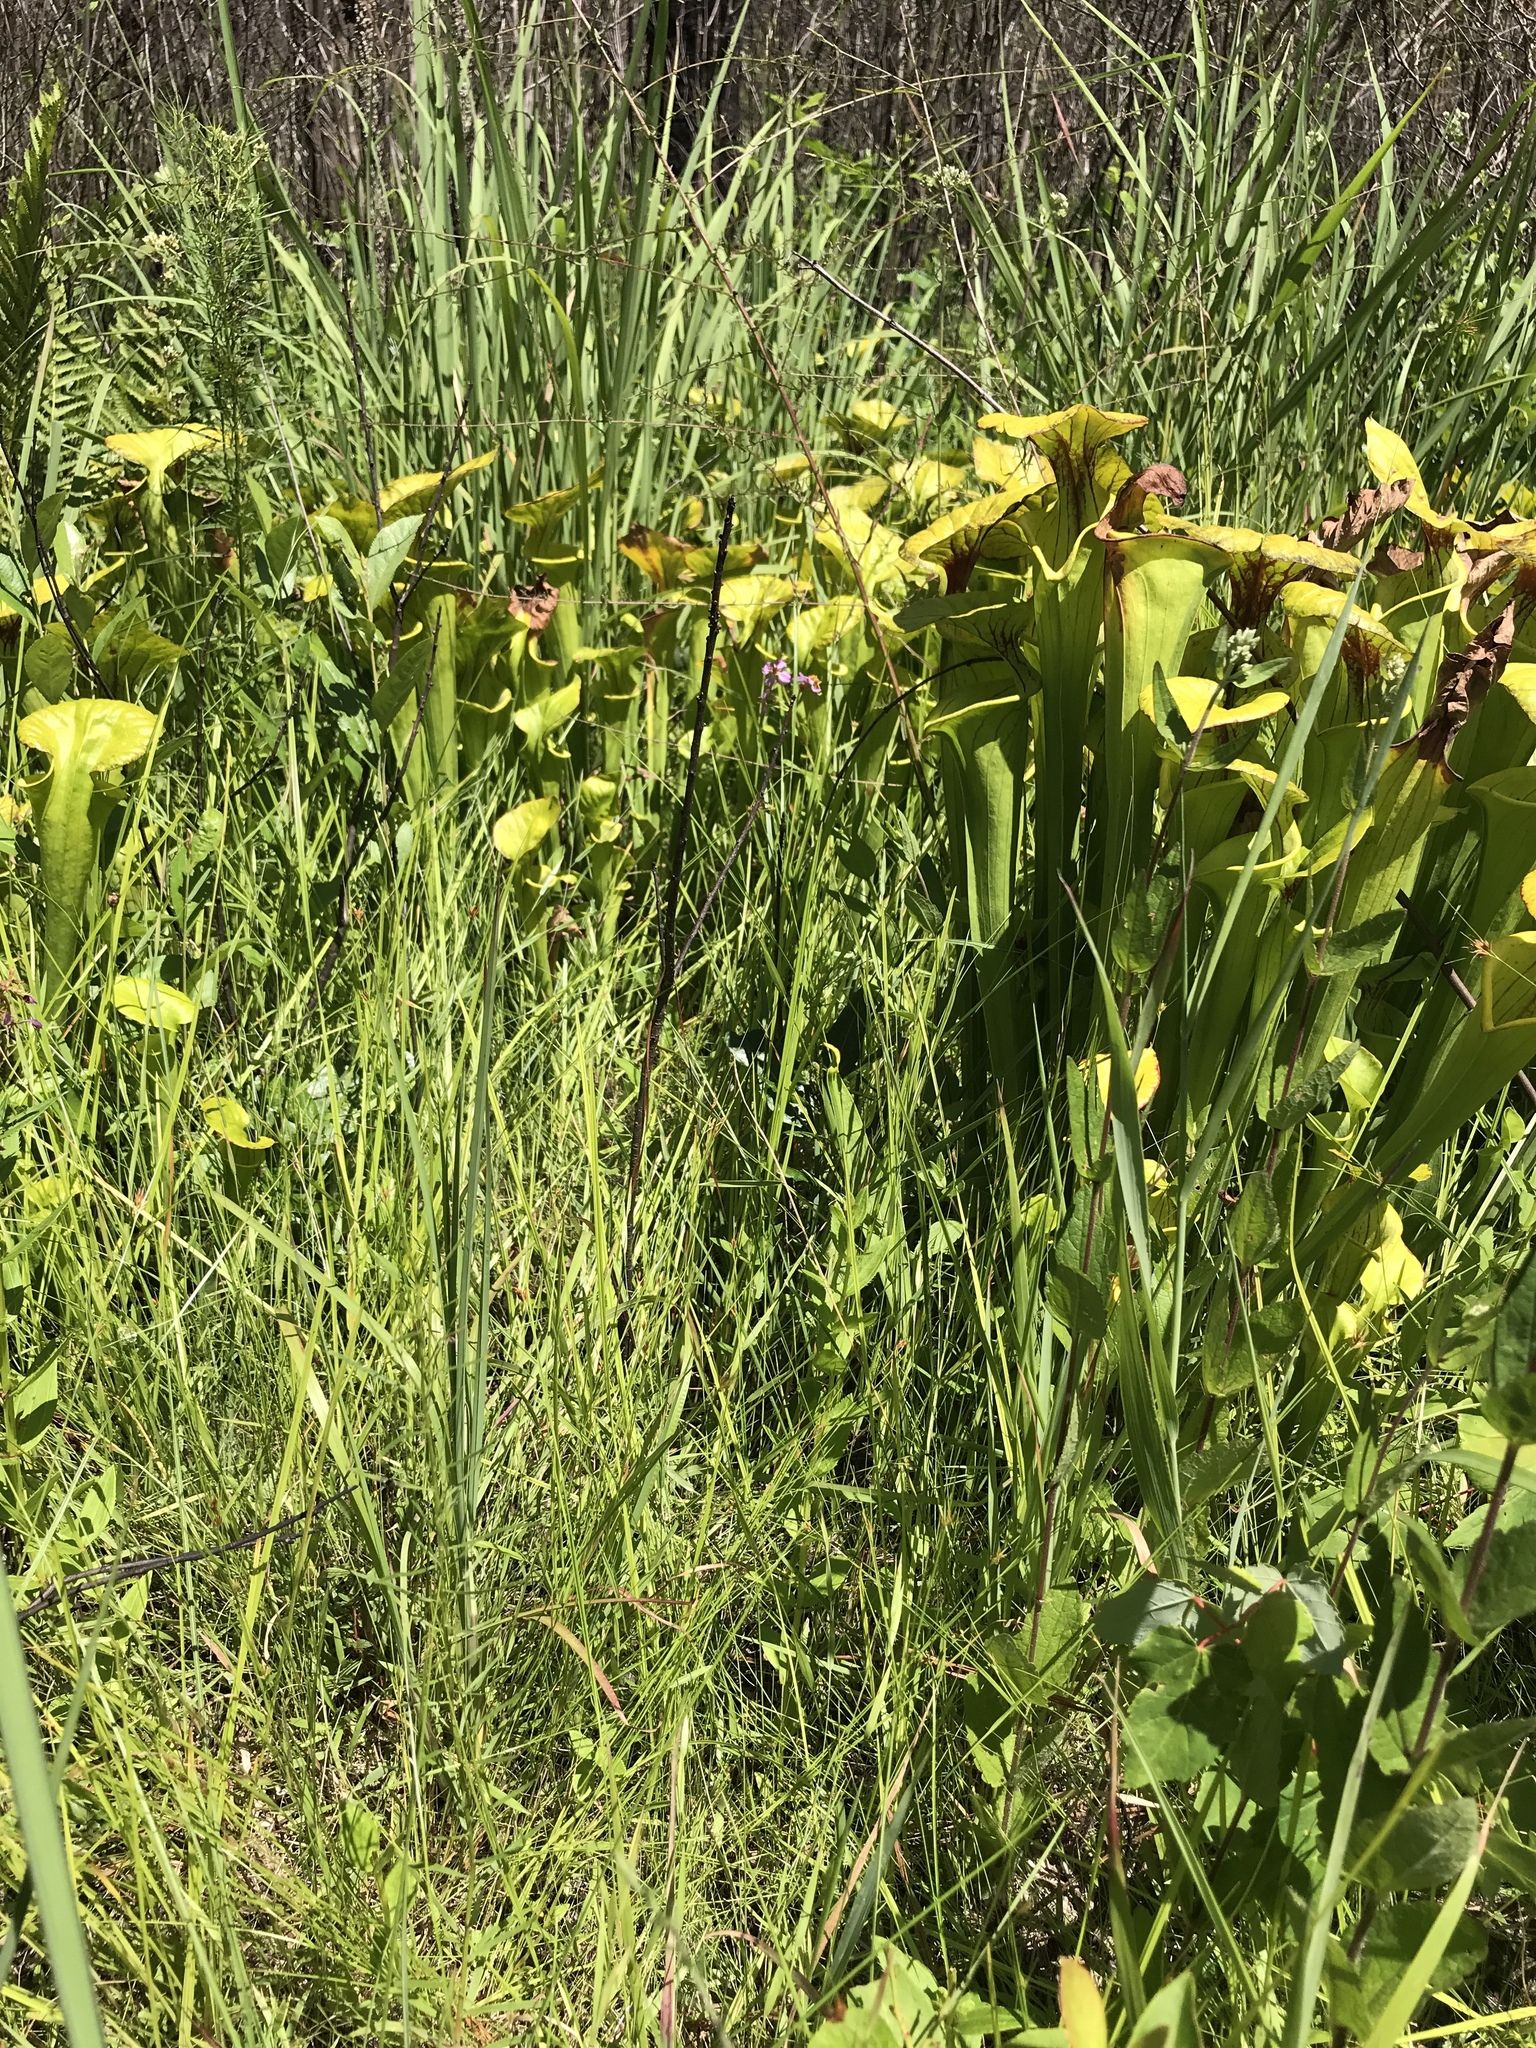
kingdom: Plantae
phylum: Tracheophyta
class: Magnoliopsida
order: Ericales
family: Sarraceniaceae
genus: Sarracenia
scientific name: Sarracenia flava
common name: Trumpets
